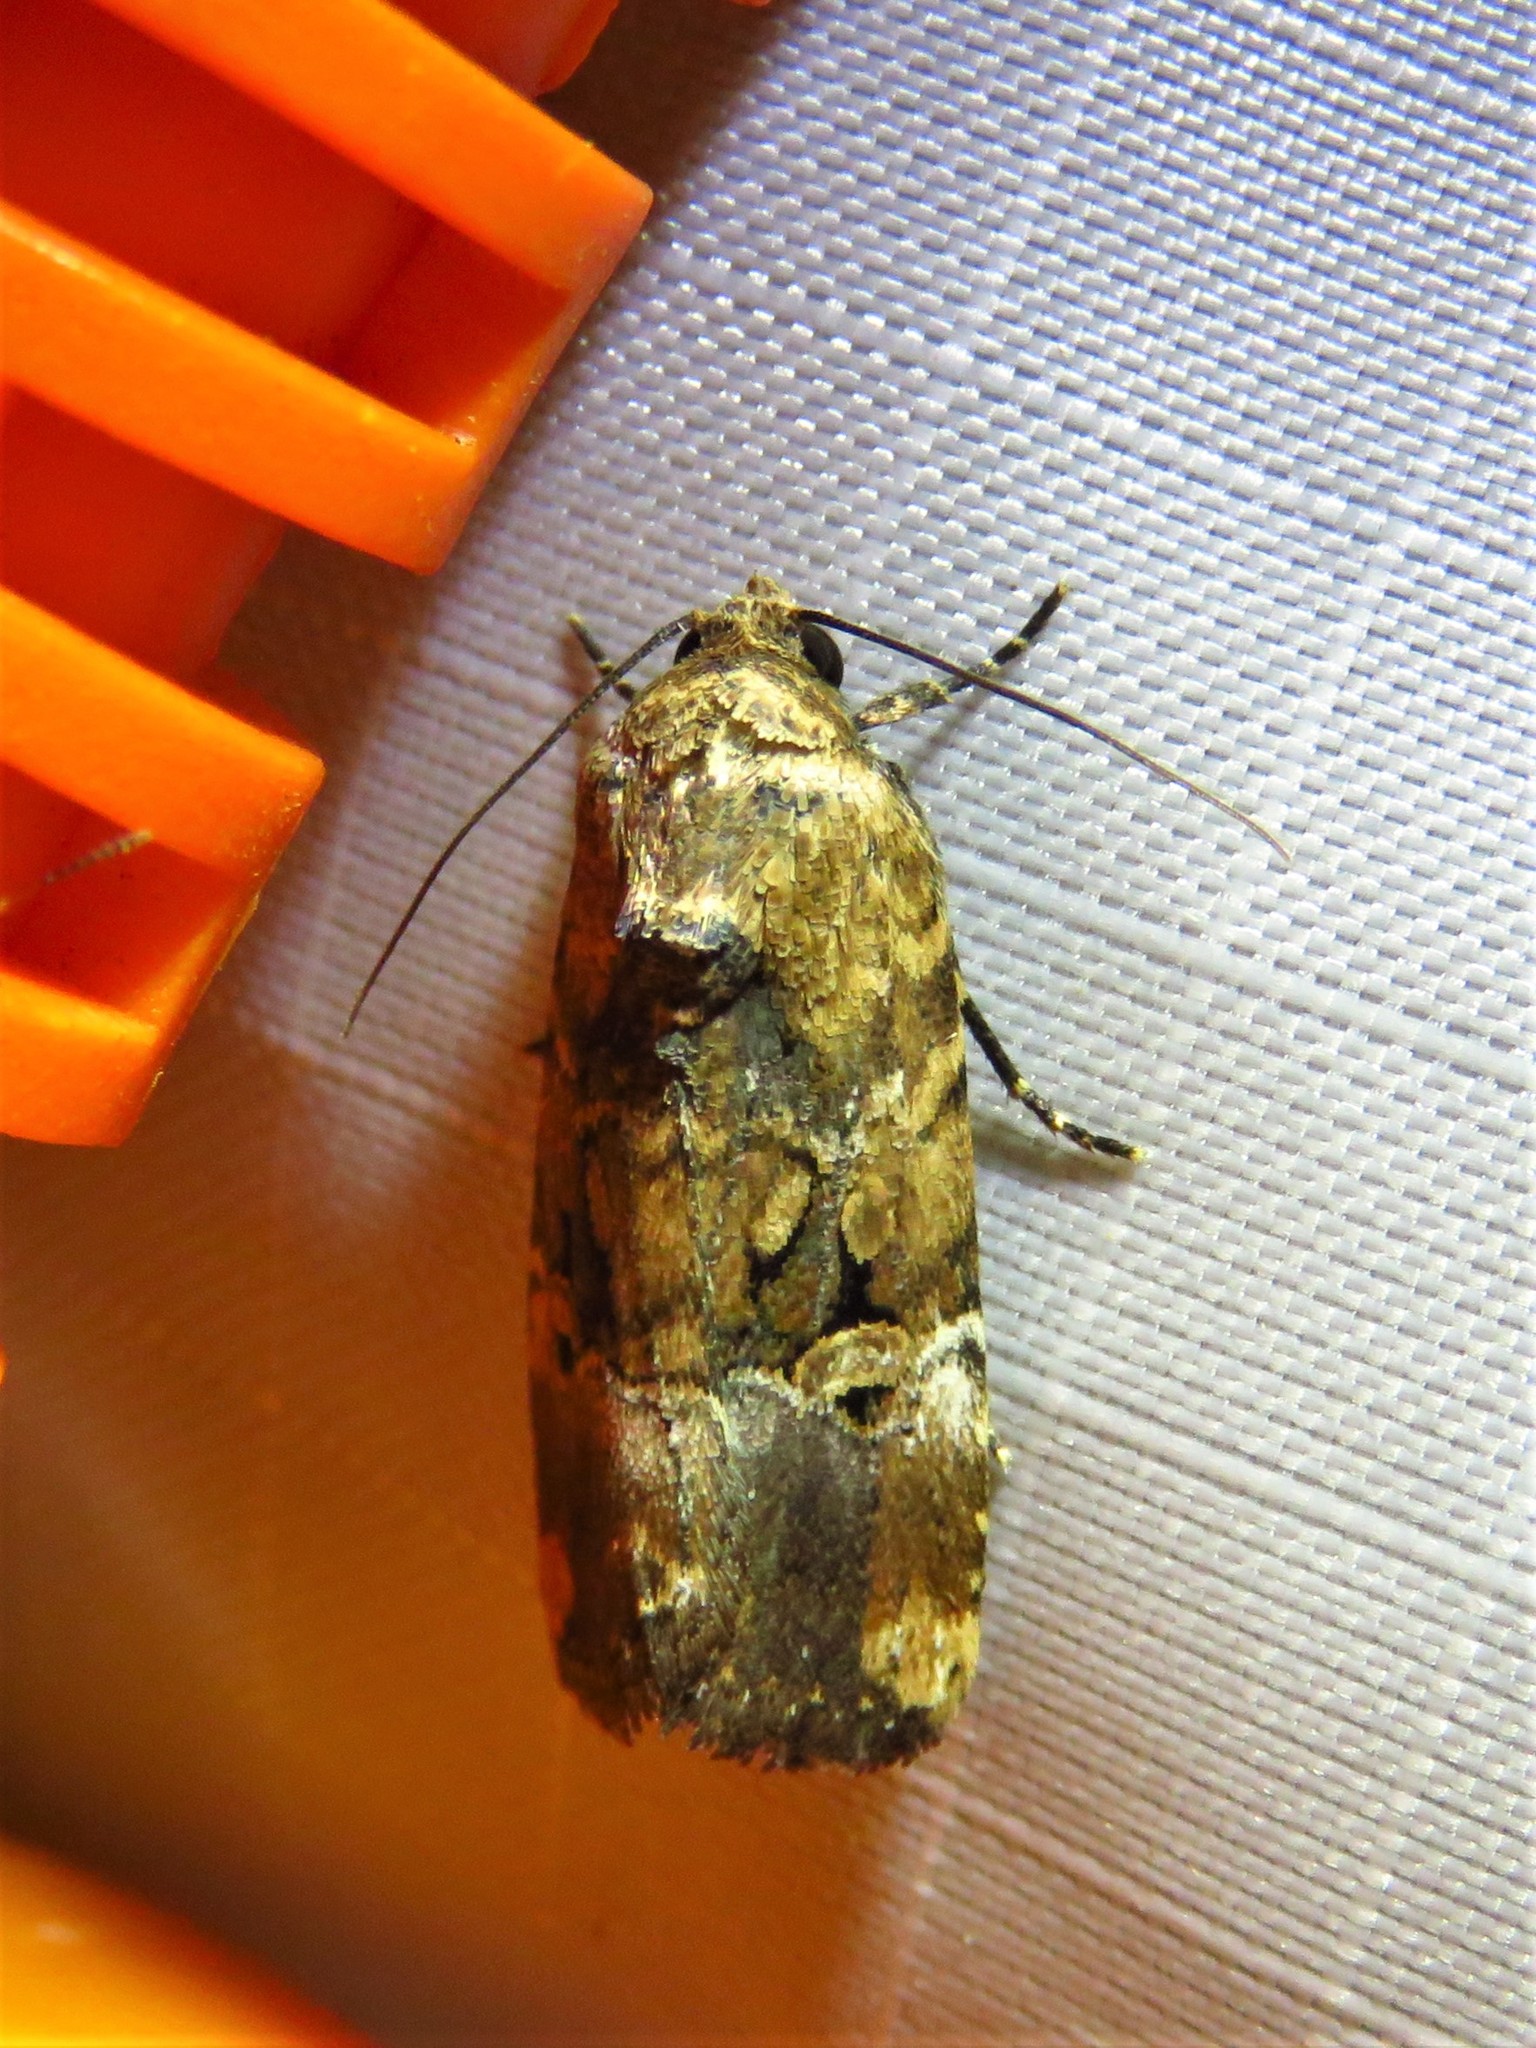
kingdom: Animalia
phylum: Arthropoda
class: Insecta
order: Lepidoptera
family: Noctuidae
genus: Elaphria
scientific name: Elaphria chalcedonia
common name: Chalcedony midget
